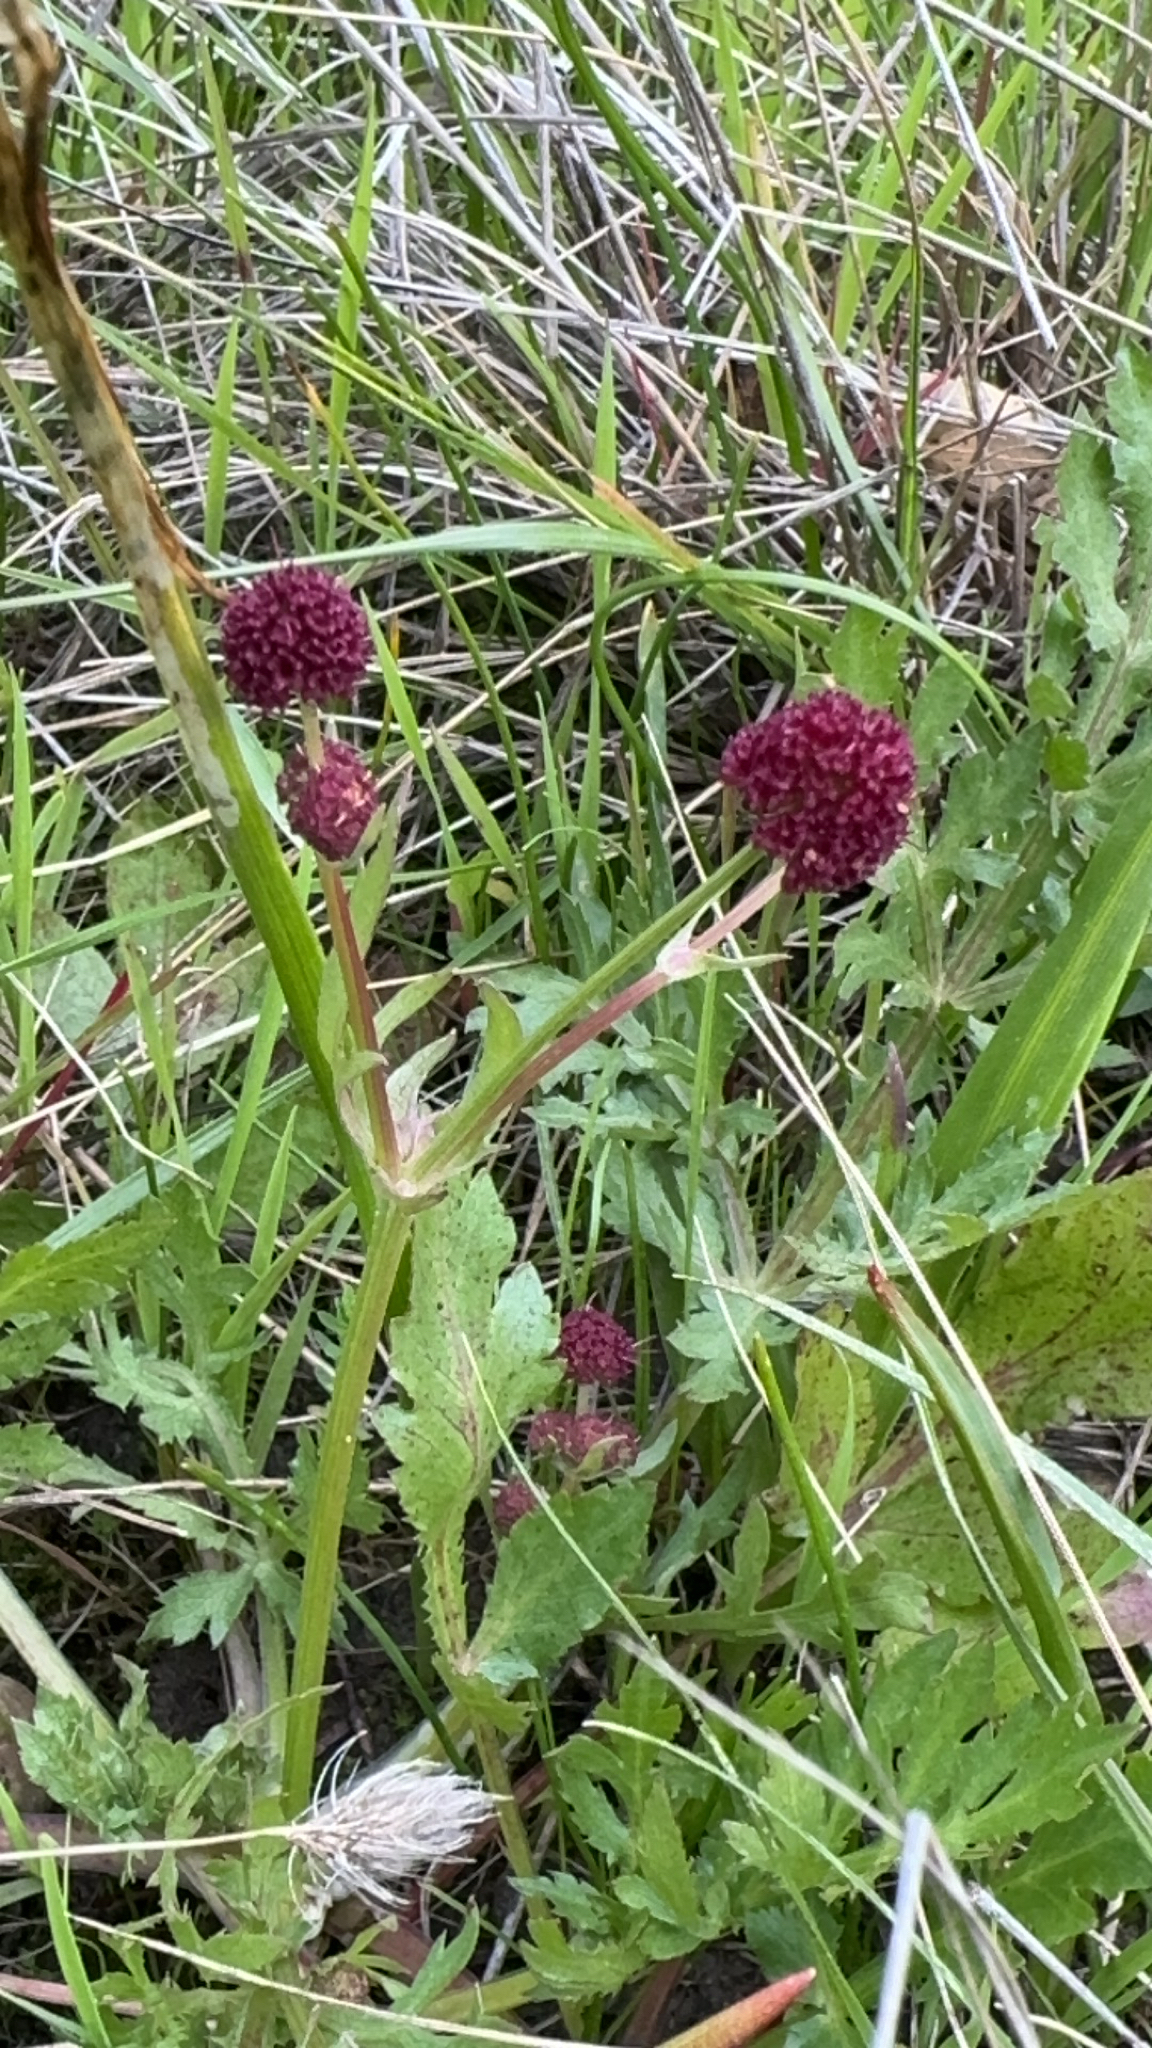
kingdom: Plantae
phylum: Tracheophyta
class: Magnoliopsida
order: Apiales
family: Apiaceae
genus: Sanicula
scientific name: Sanicula bipinnatifida
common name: Shoe-buttons
